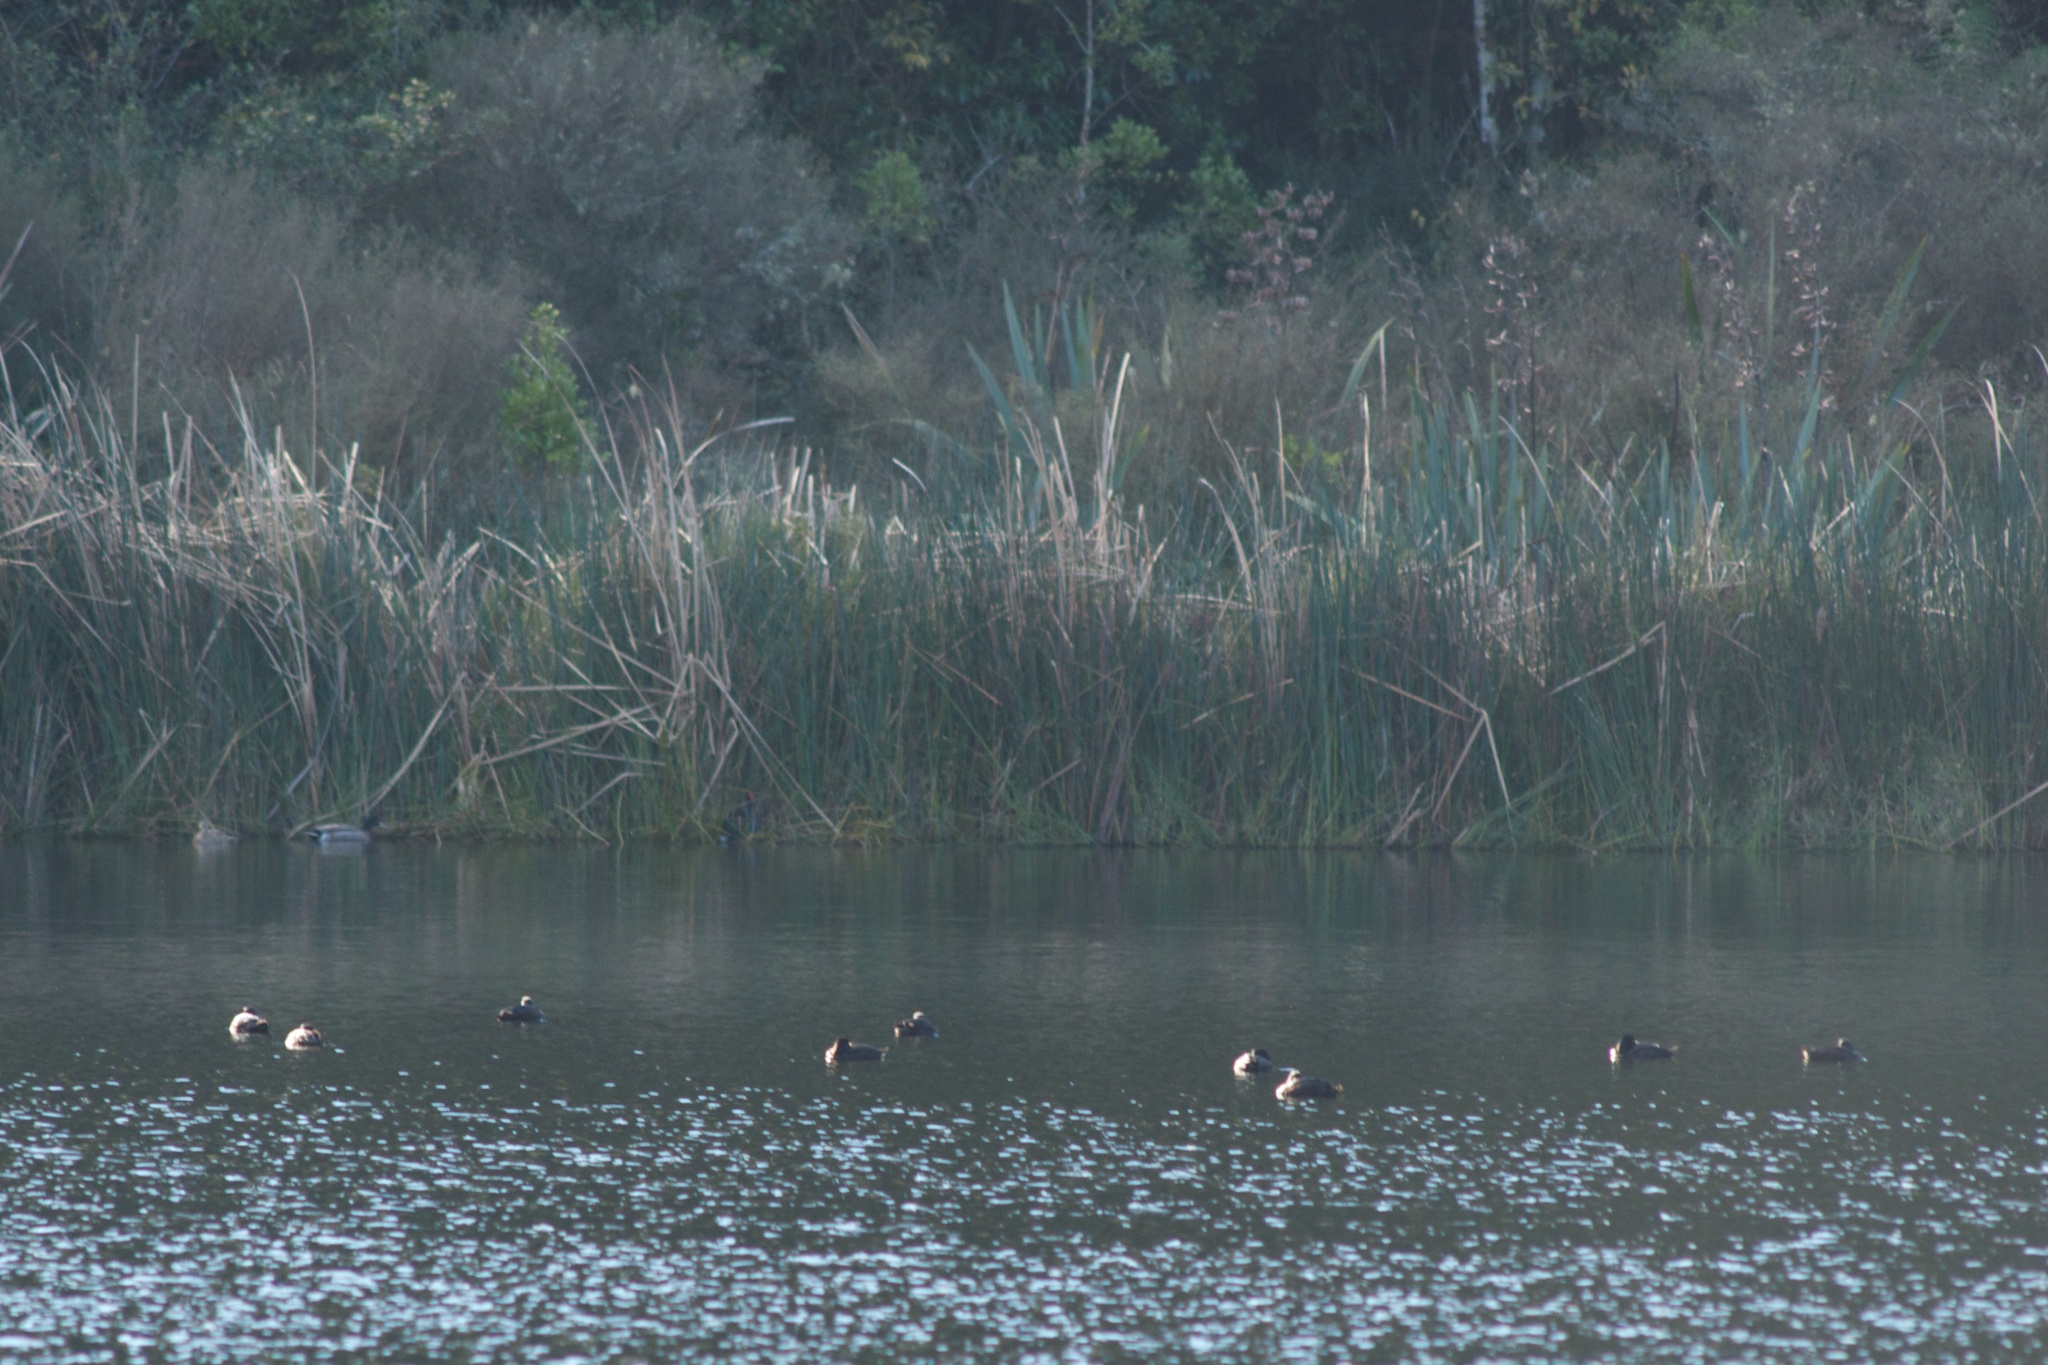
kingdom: Animalia
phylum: Chordata
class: Aves
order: Anseriformes
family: Anatidae
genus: Aythya
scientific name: Aythya novaeseelandiae
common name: New zealand scaup
